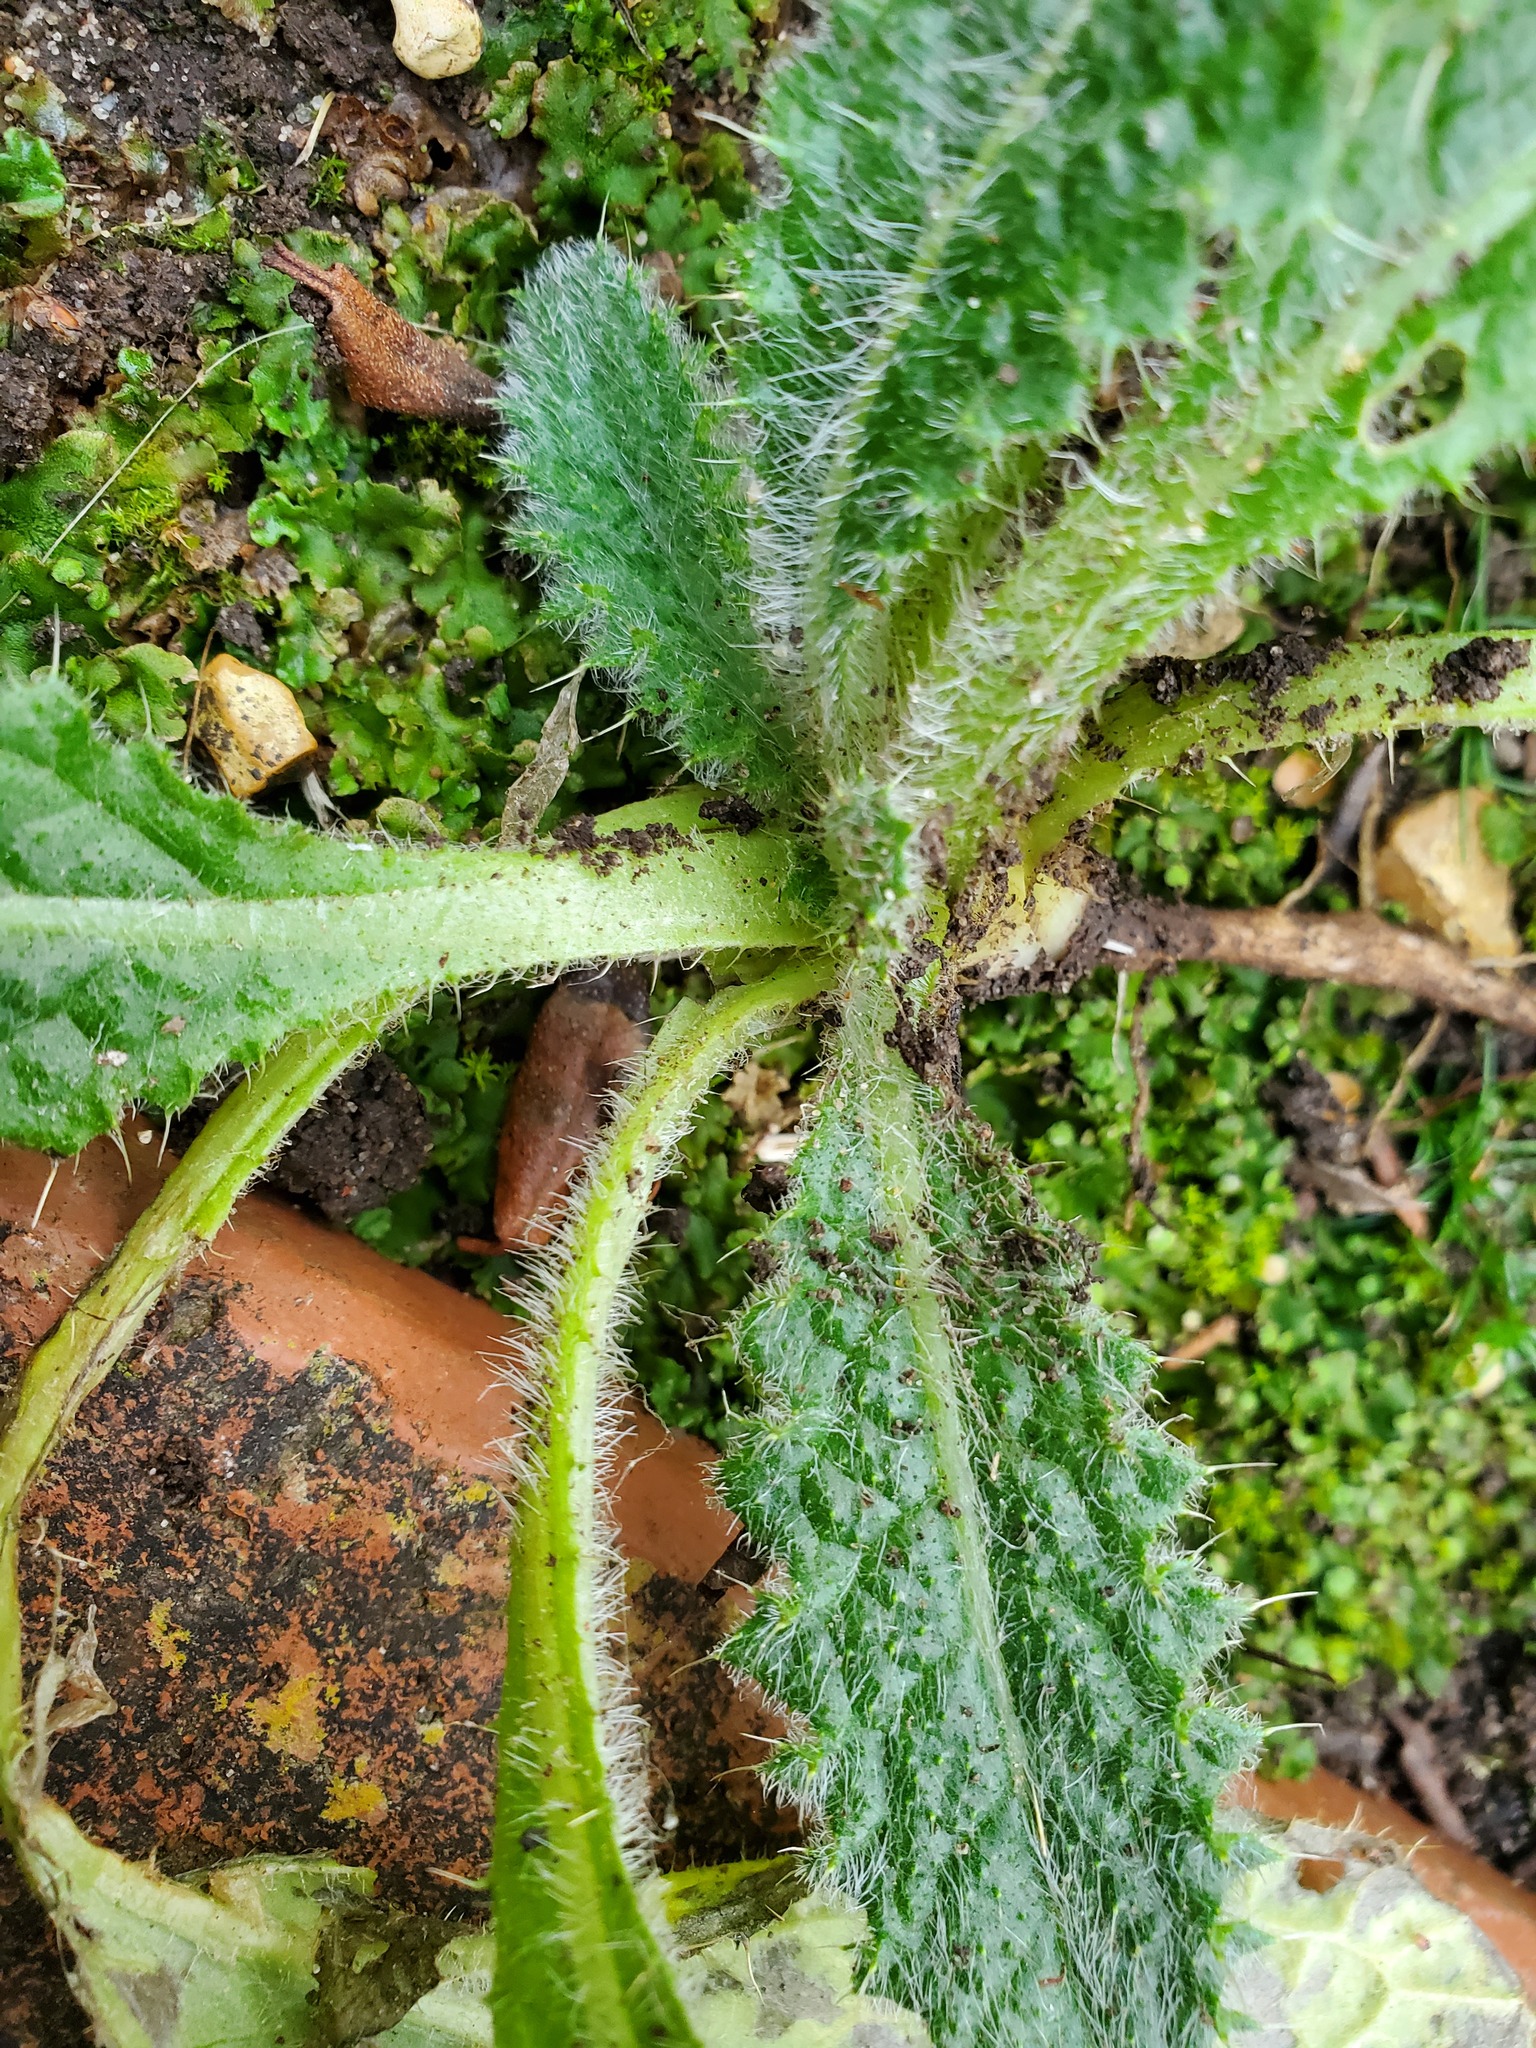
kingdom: Plantae
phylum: Tracheophyta
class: Magnoliopsida
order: Asterales
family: Asteraceae
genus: Cirsium
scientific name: Cirsium vulgare
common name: Bull thistle
